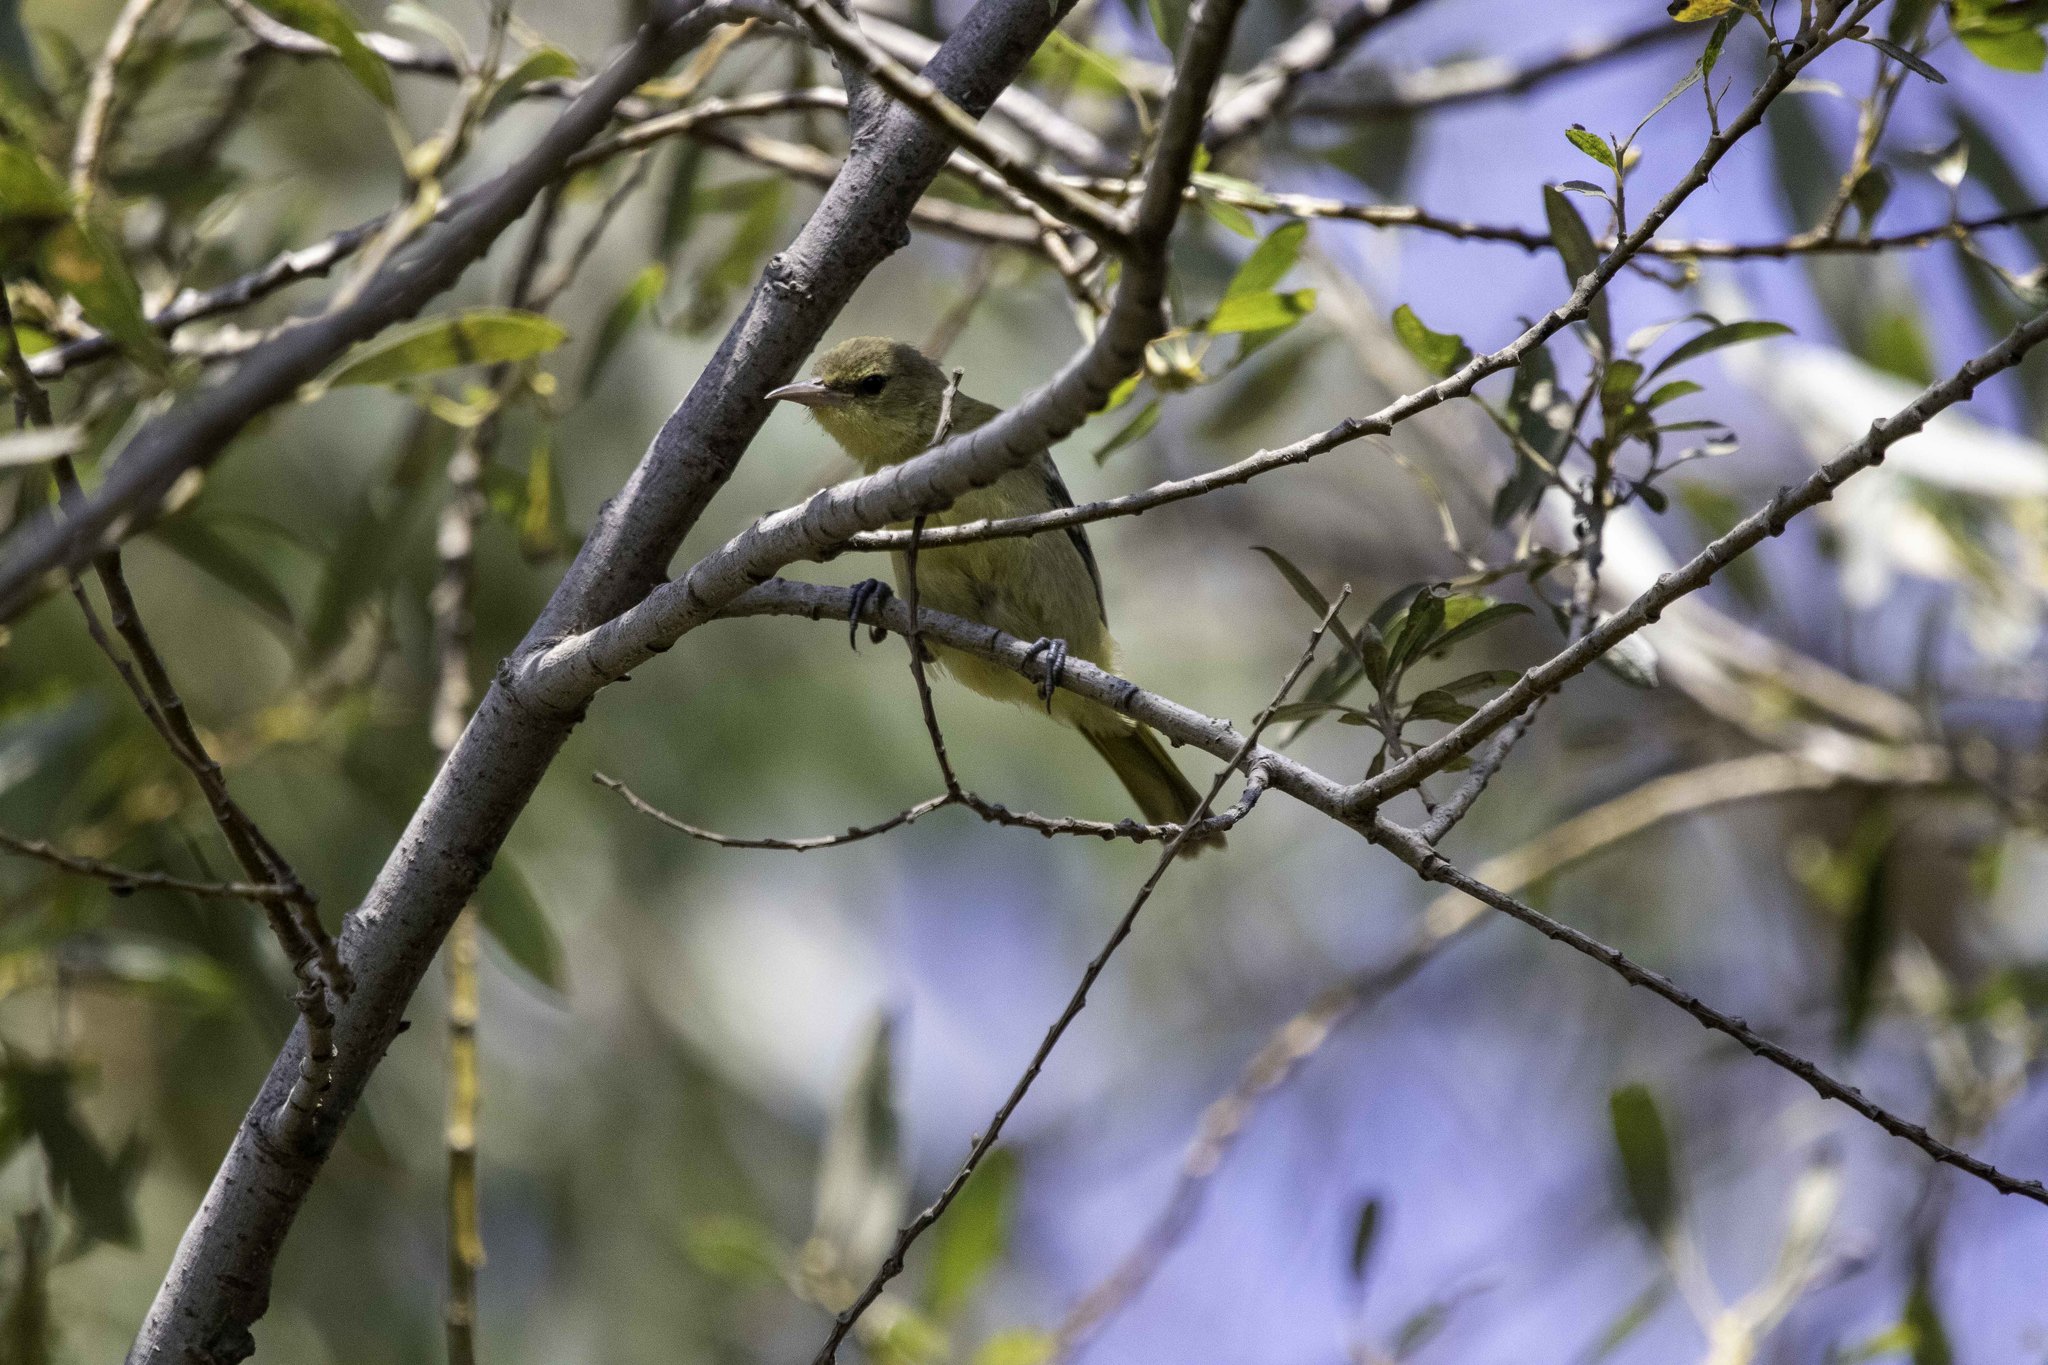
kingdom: Animalia
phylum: Chordata
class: Aves
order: Passeriformes
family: Icteridae
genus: Icterus
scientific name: Icterus cucullatus
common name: Hooded oriole
